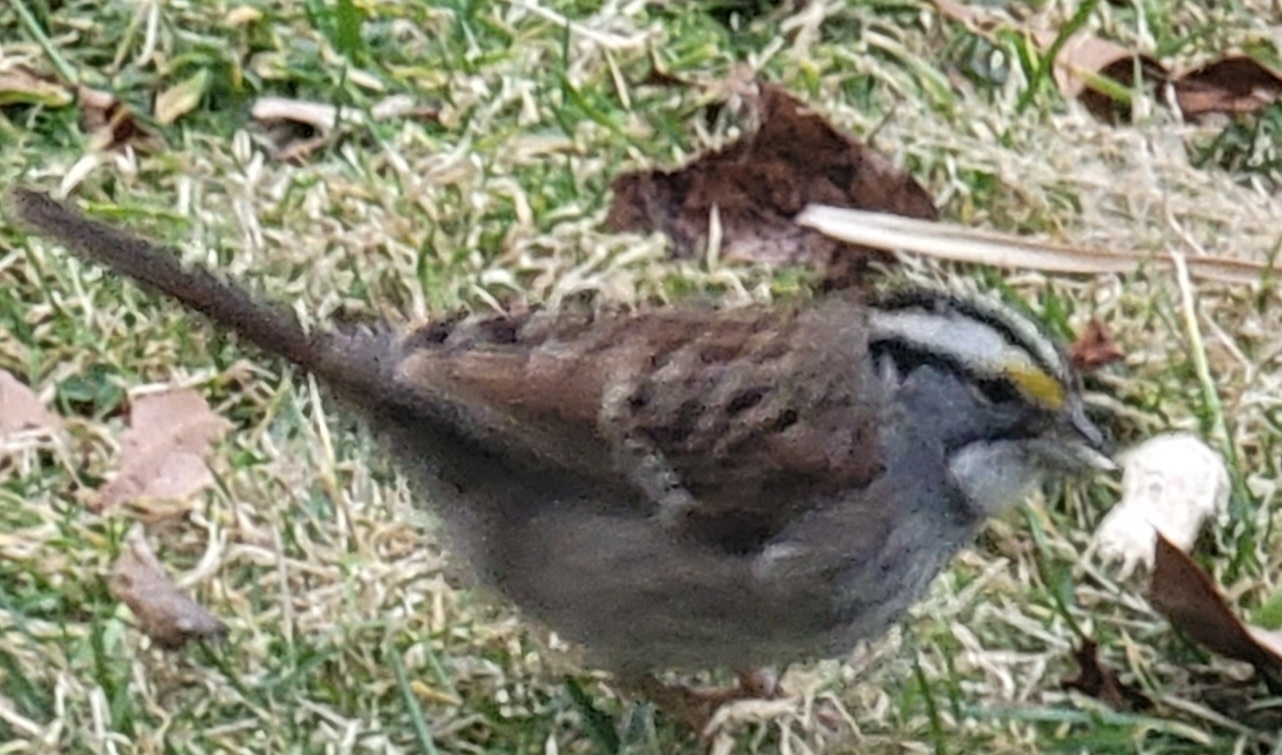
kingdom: Animalia
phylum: Chordata
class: Aves
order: Passeriformes
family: Passerellidae
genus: Zonotrichia
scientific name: Zonotrichia albicollis
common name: White-throated sparrow
